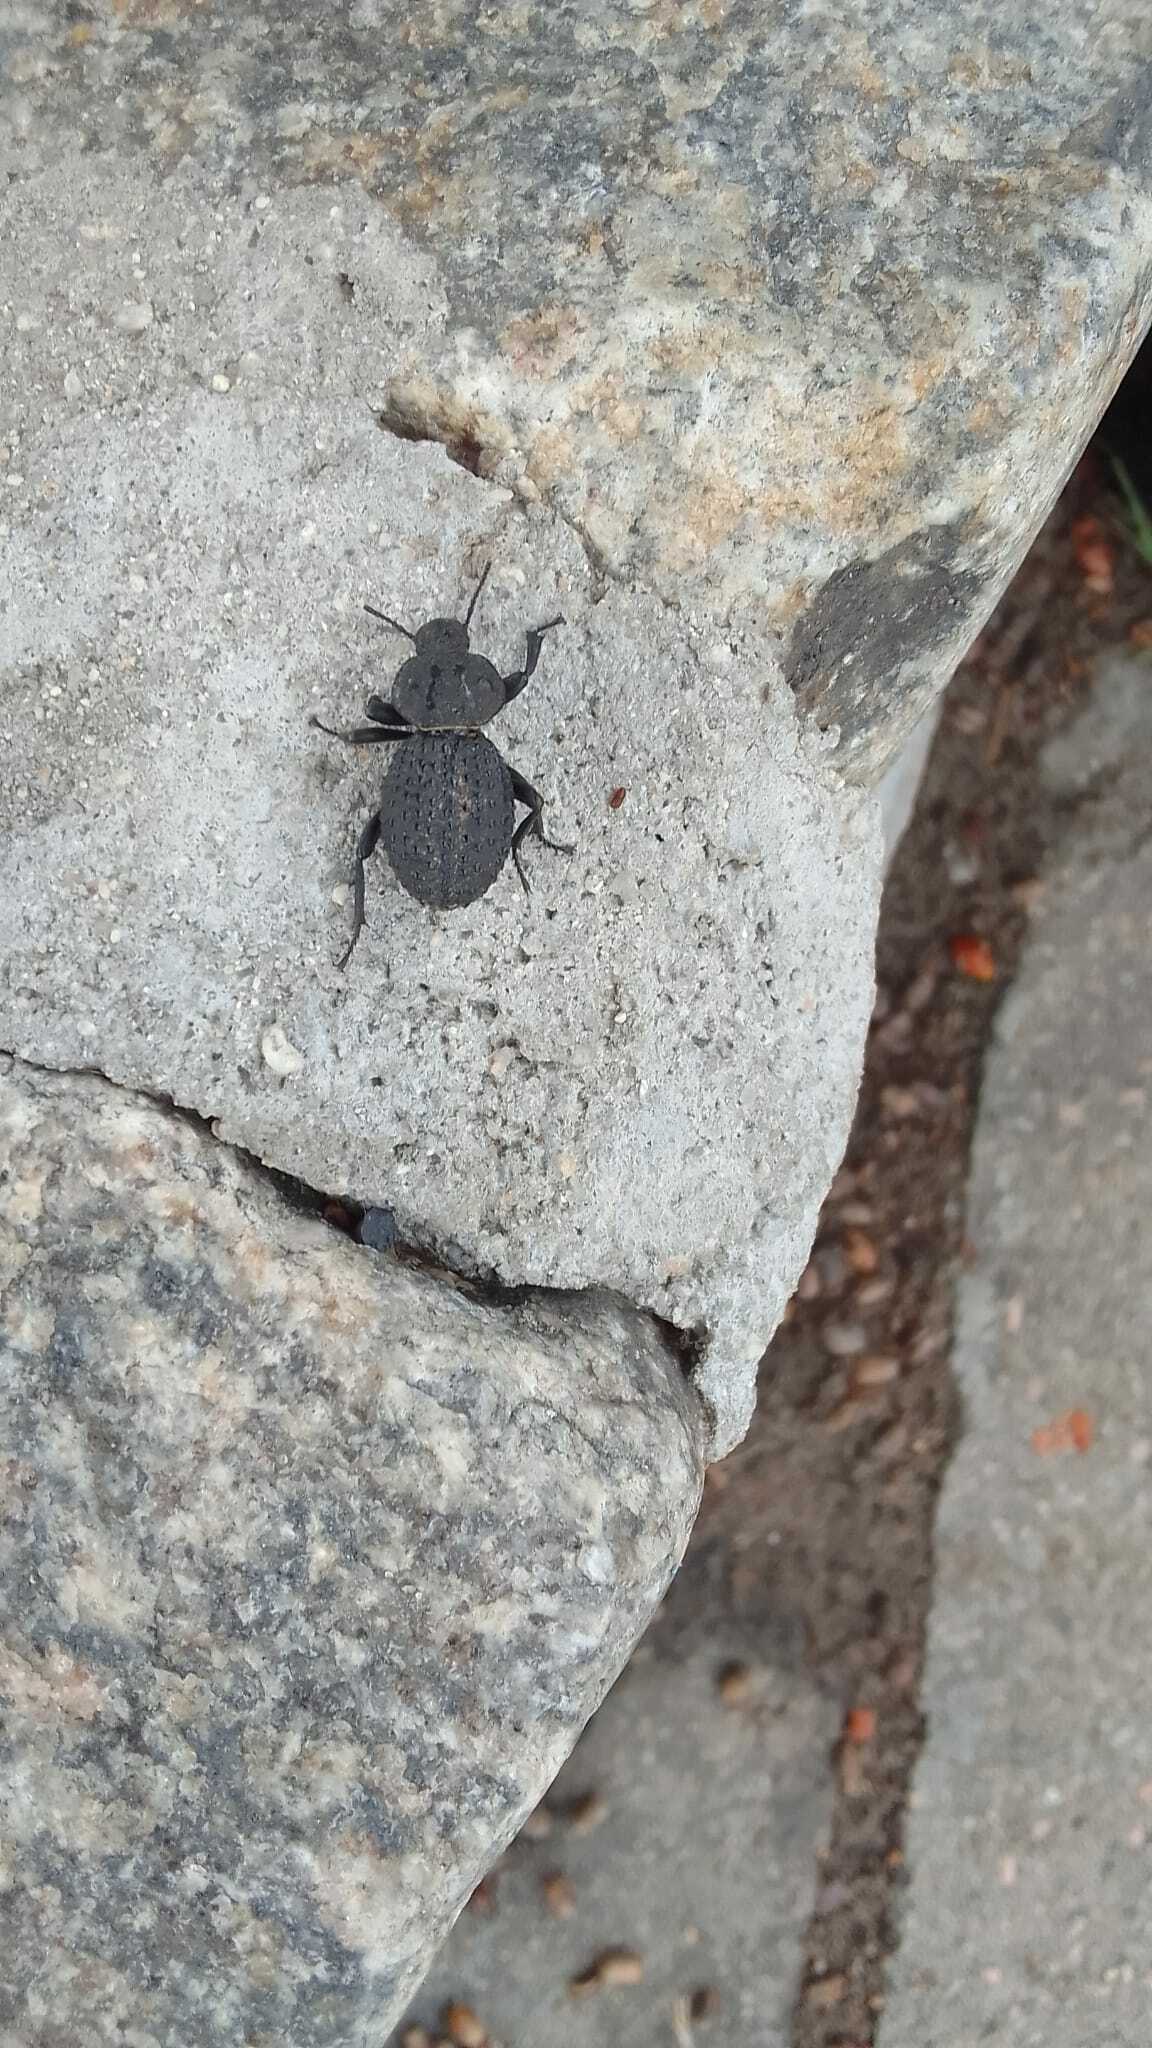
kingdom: Animalia
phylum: Arthropoda
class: Insecta
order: Coleoptera
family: Tenebrionidae
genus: Scotobius
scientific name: Scotobius pilularius
